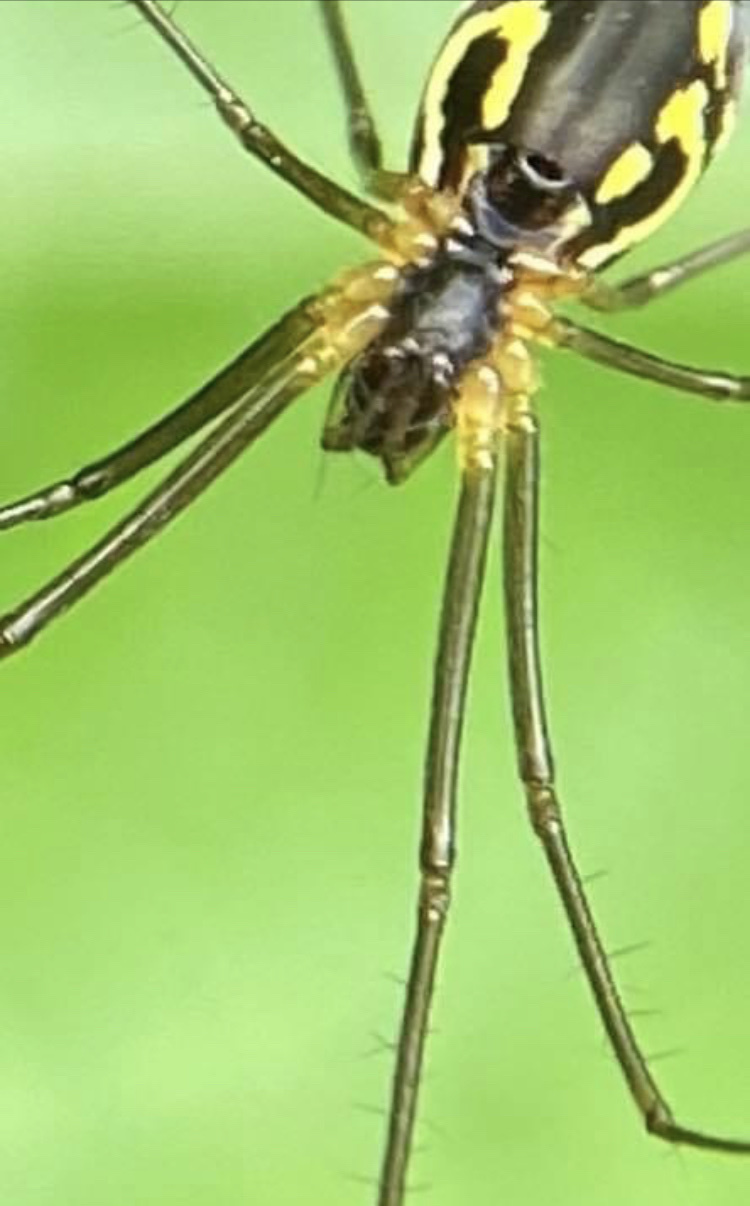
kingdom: Animalia
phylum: Arthropoda
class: Arachnida
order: Araneae
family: Linyphiidae
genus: Neriene
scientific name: Neriene radiata
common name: Filmy dome spider
